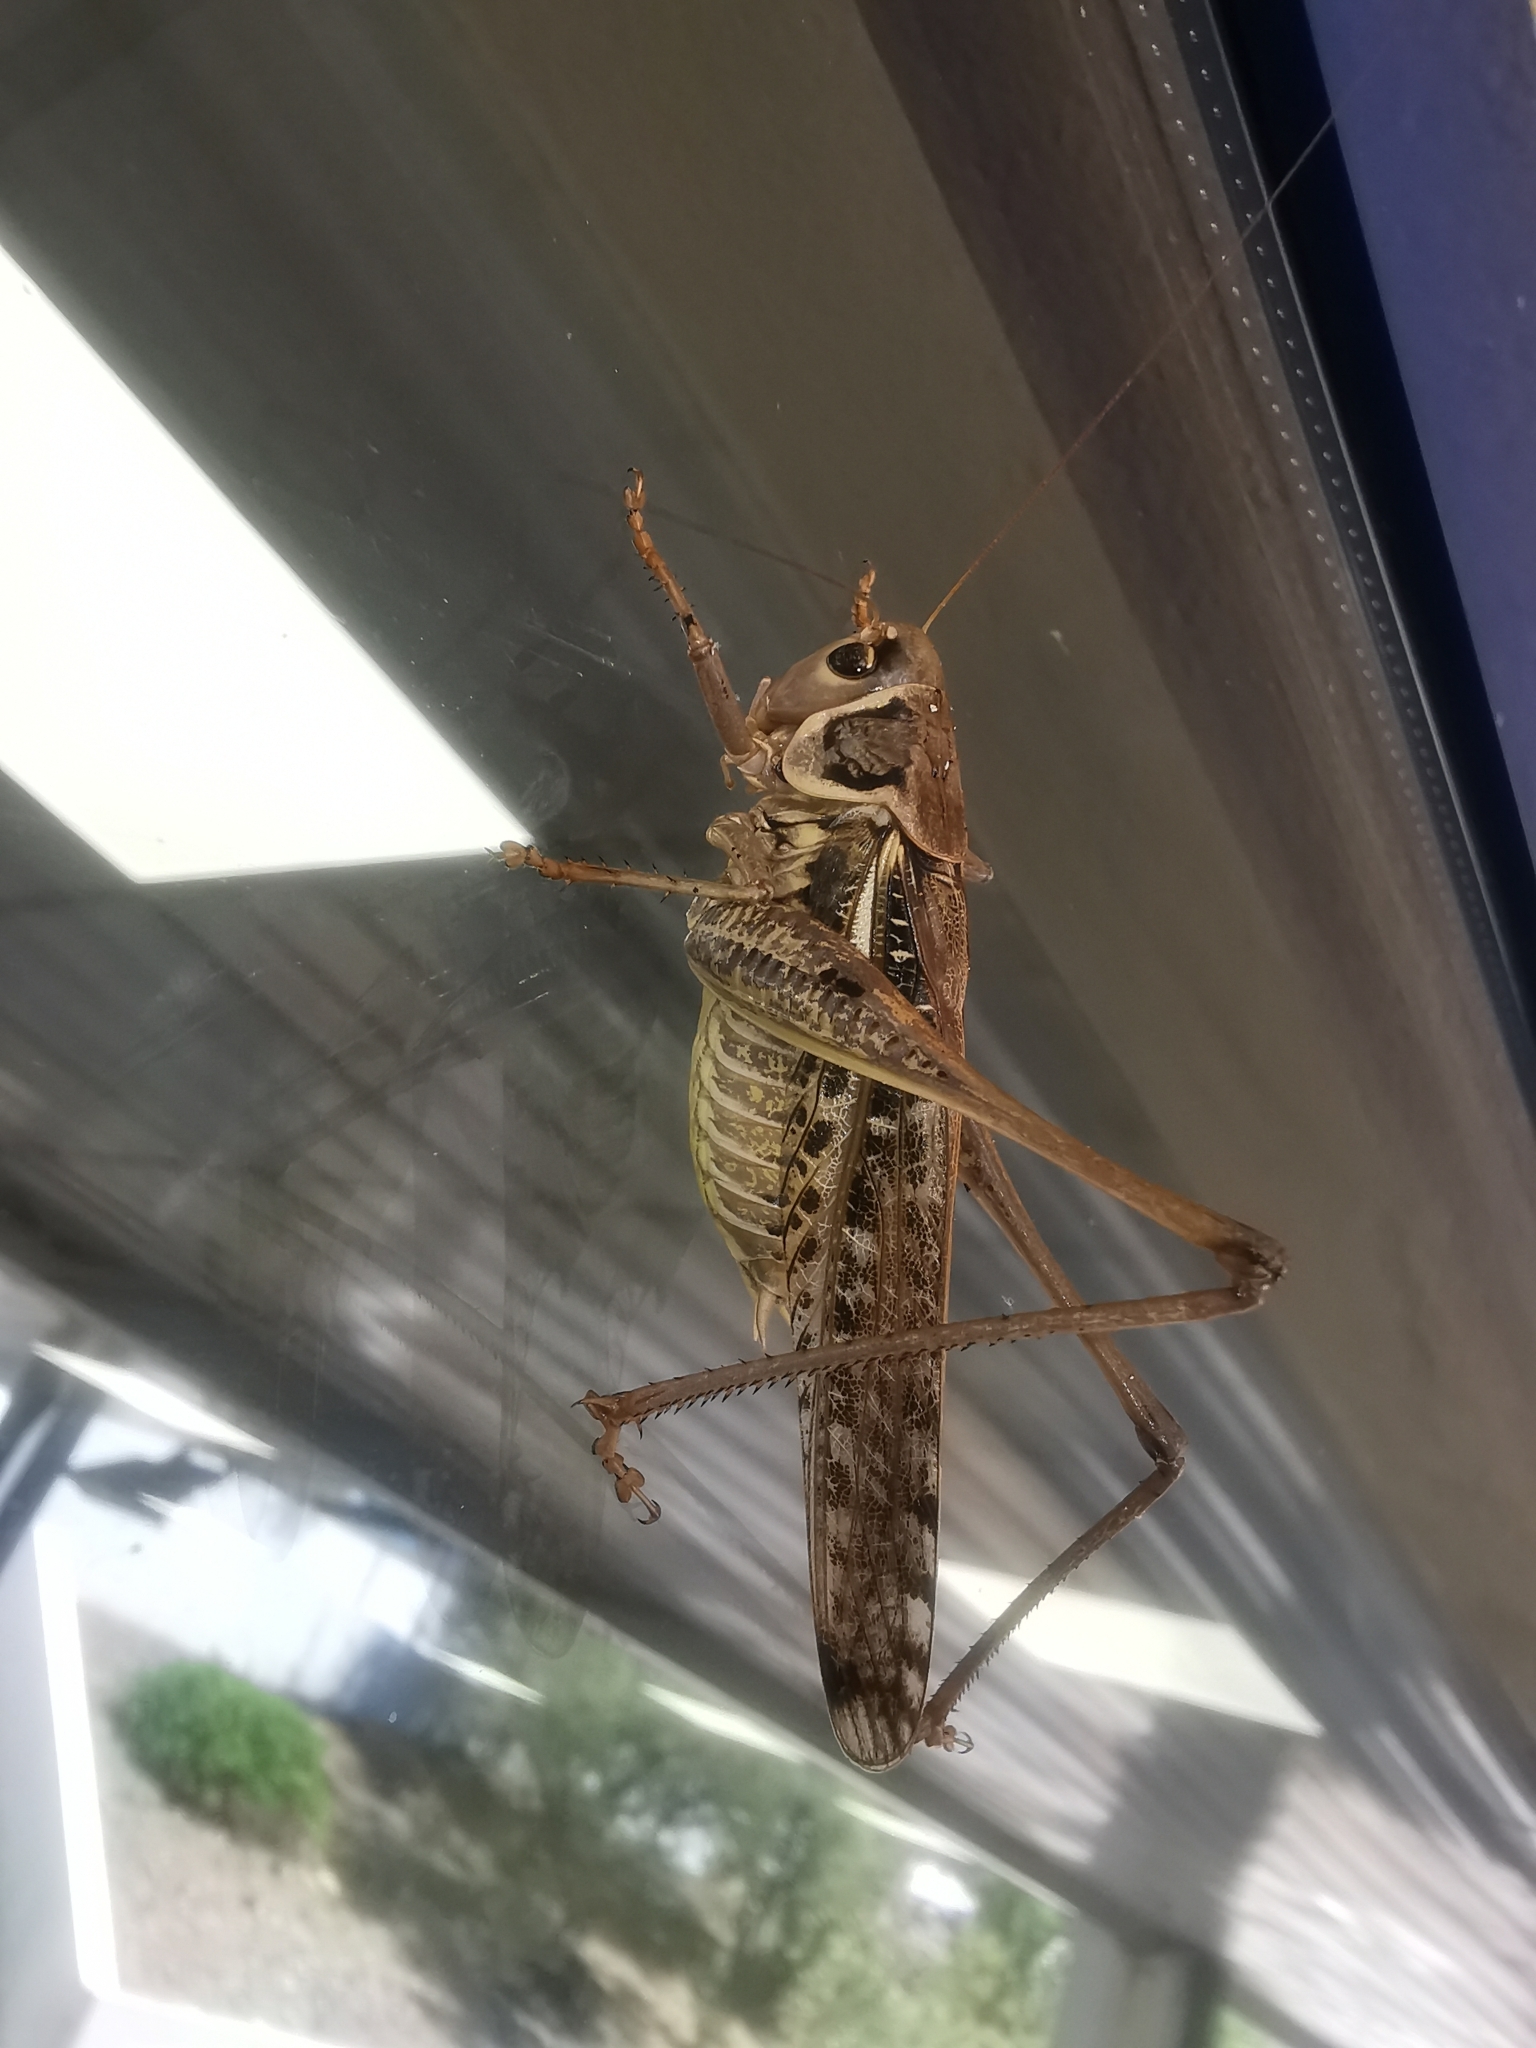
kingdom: Animalia
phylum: Arthropoda
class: Insecta
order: Orthoptera
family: Tettigoniidae
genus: Decticus
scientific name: Decticus albifrons
